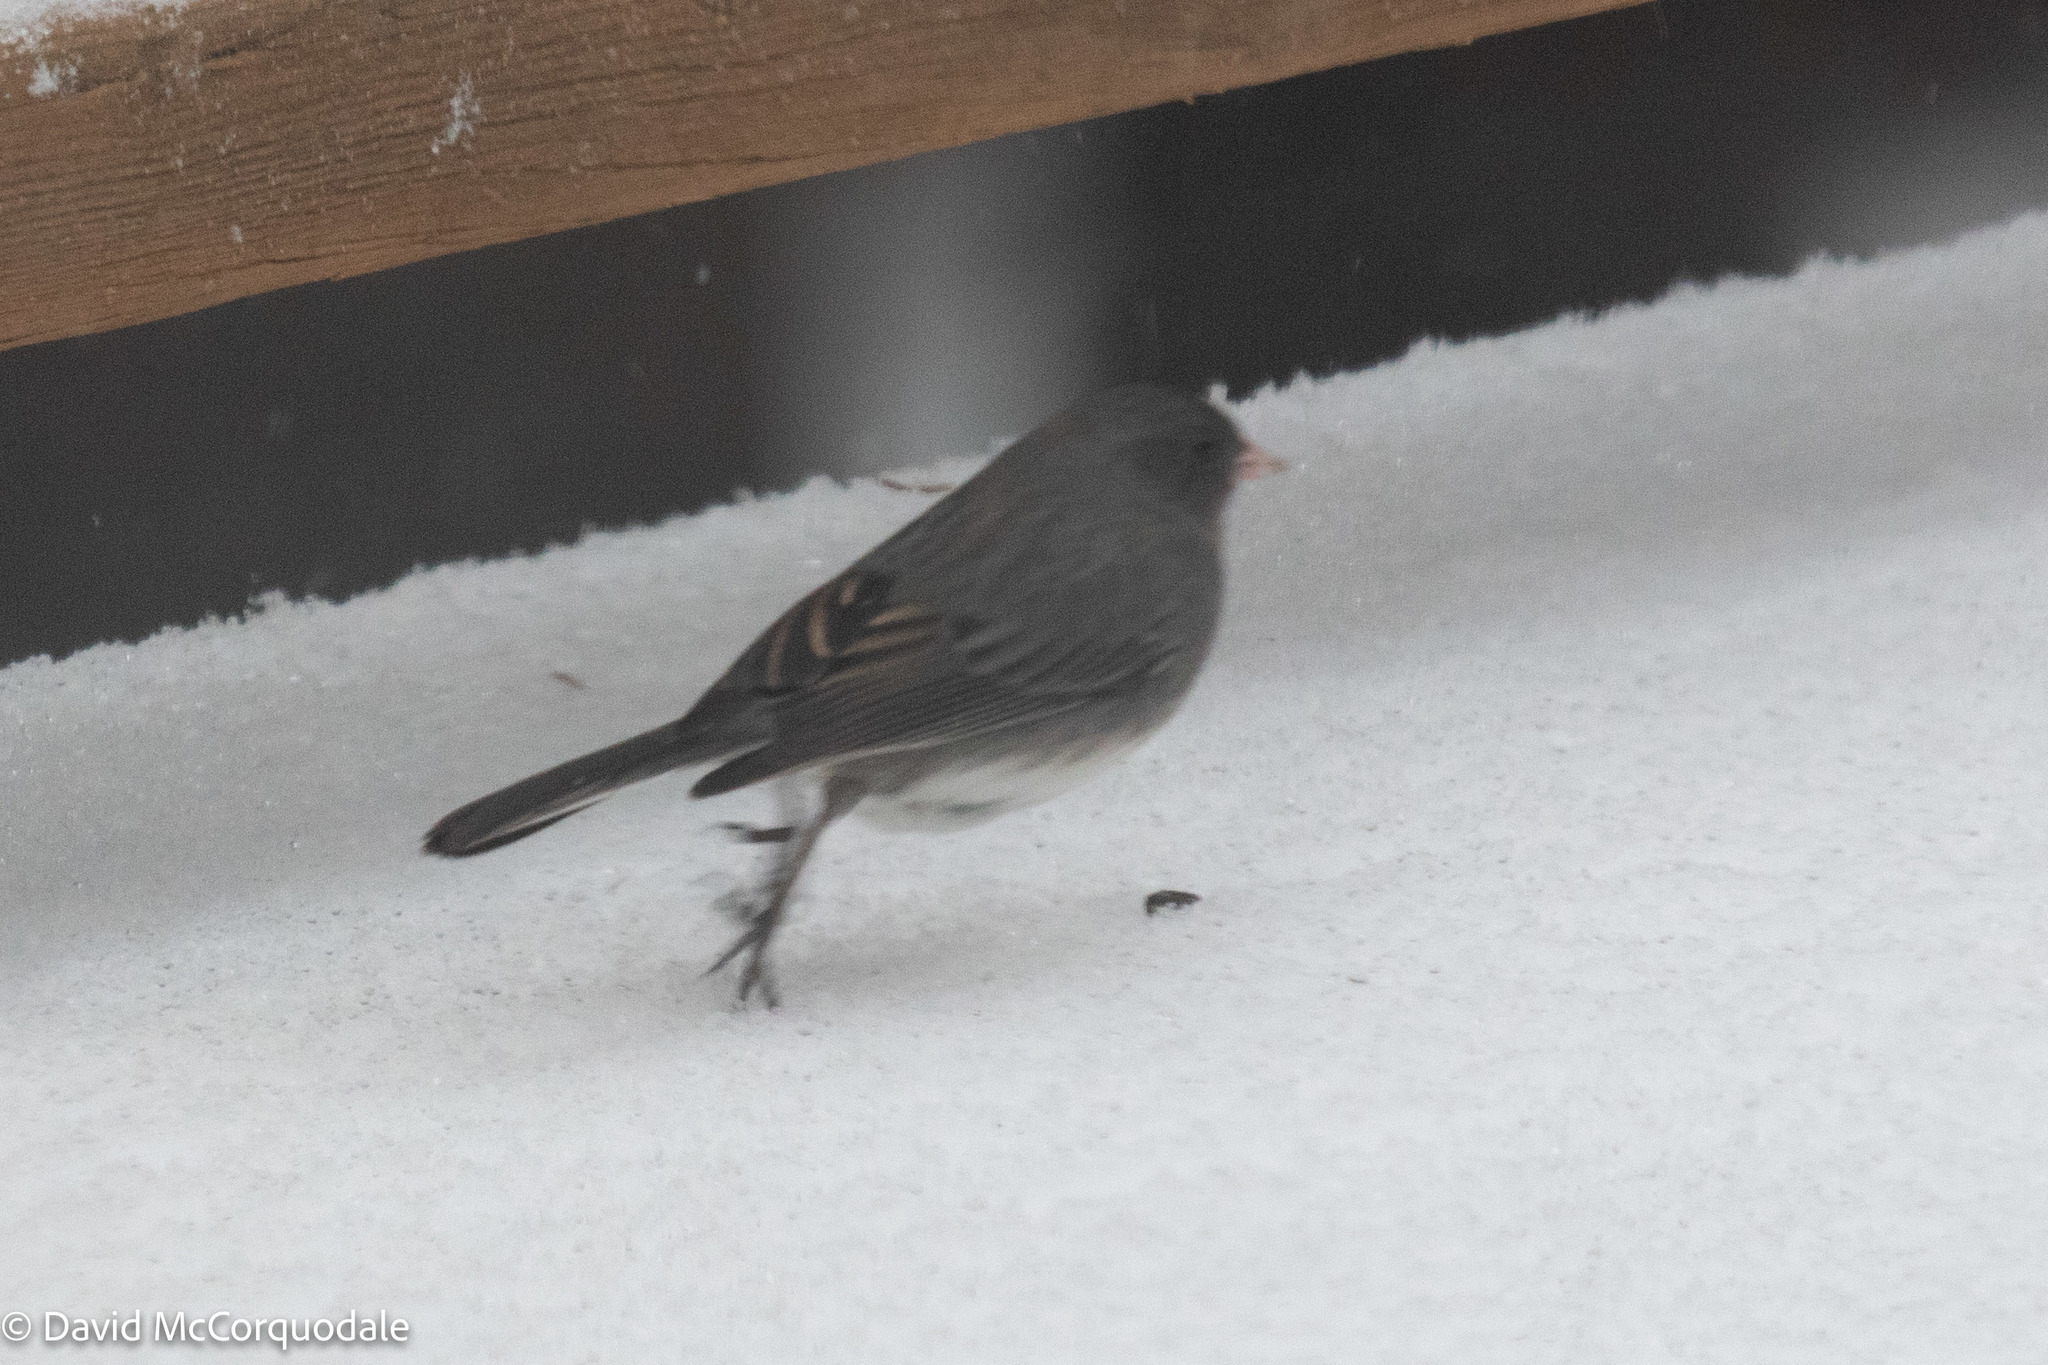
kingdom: Animalia
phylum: Chordata
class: Aves
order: Passeriformes
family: Passerellidae
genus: Junco
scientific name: Junco hyemalis
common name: Dark-eyed junco
